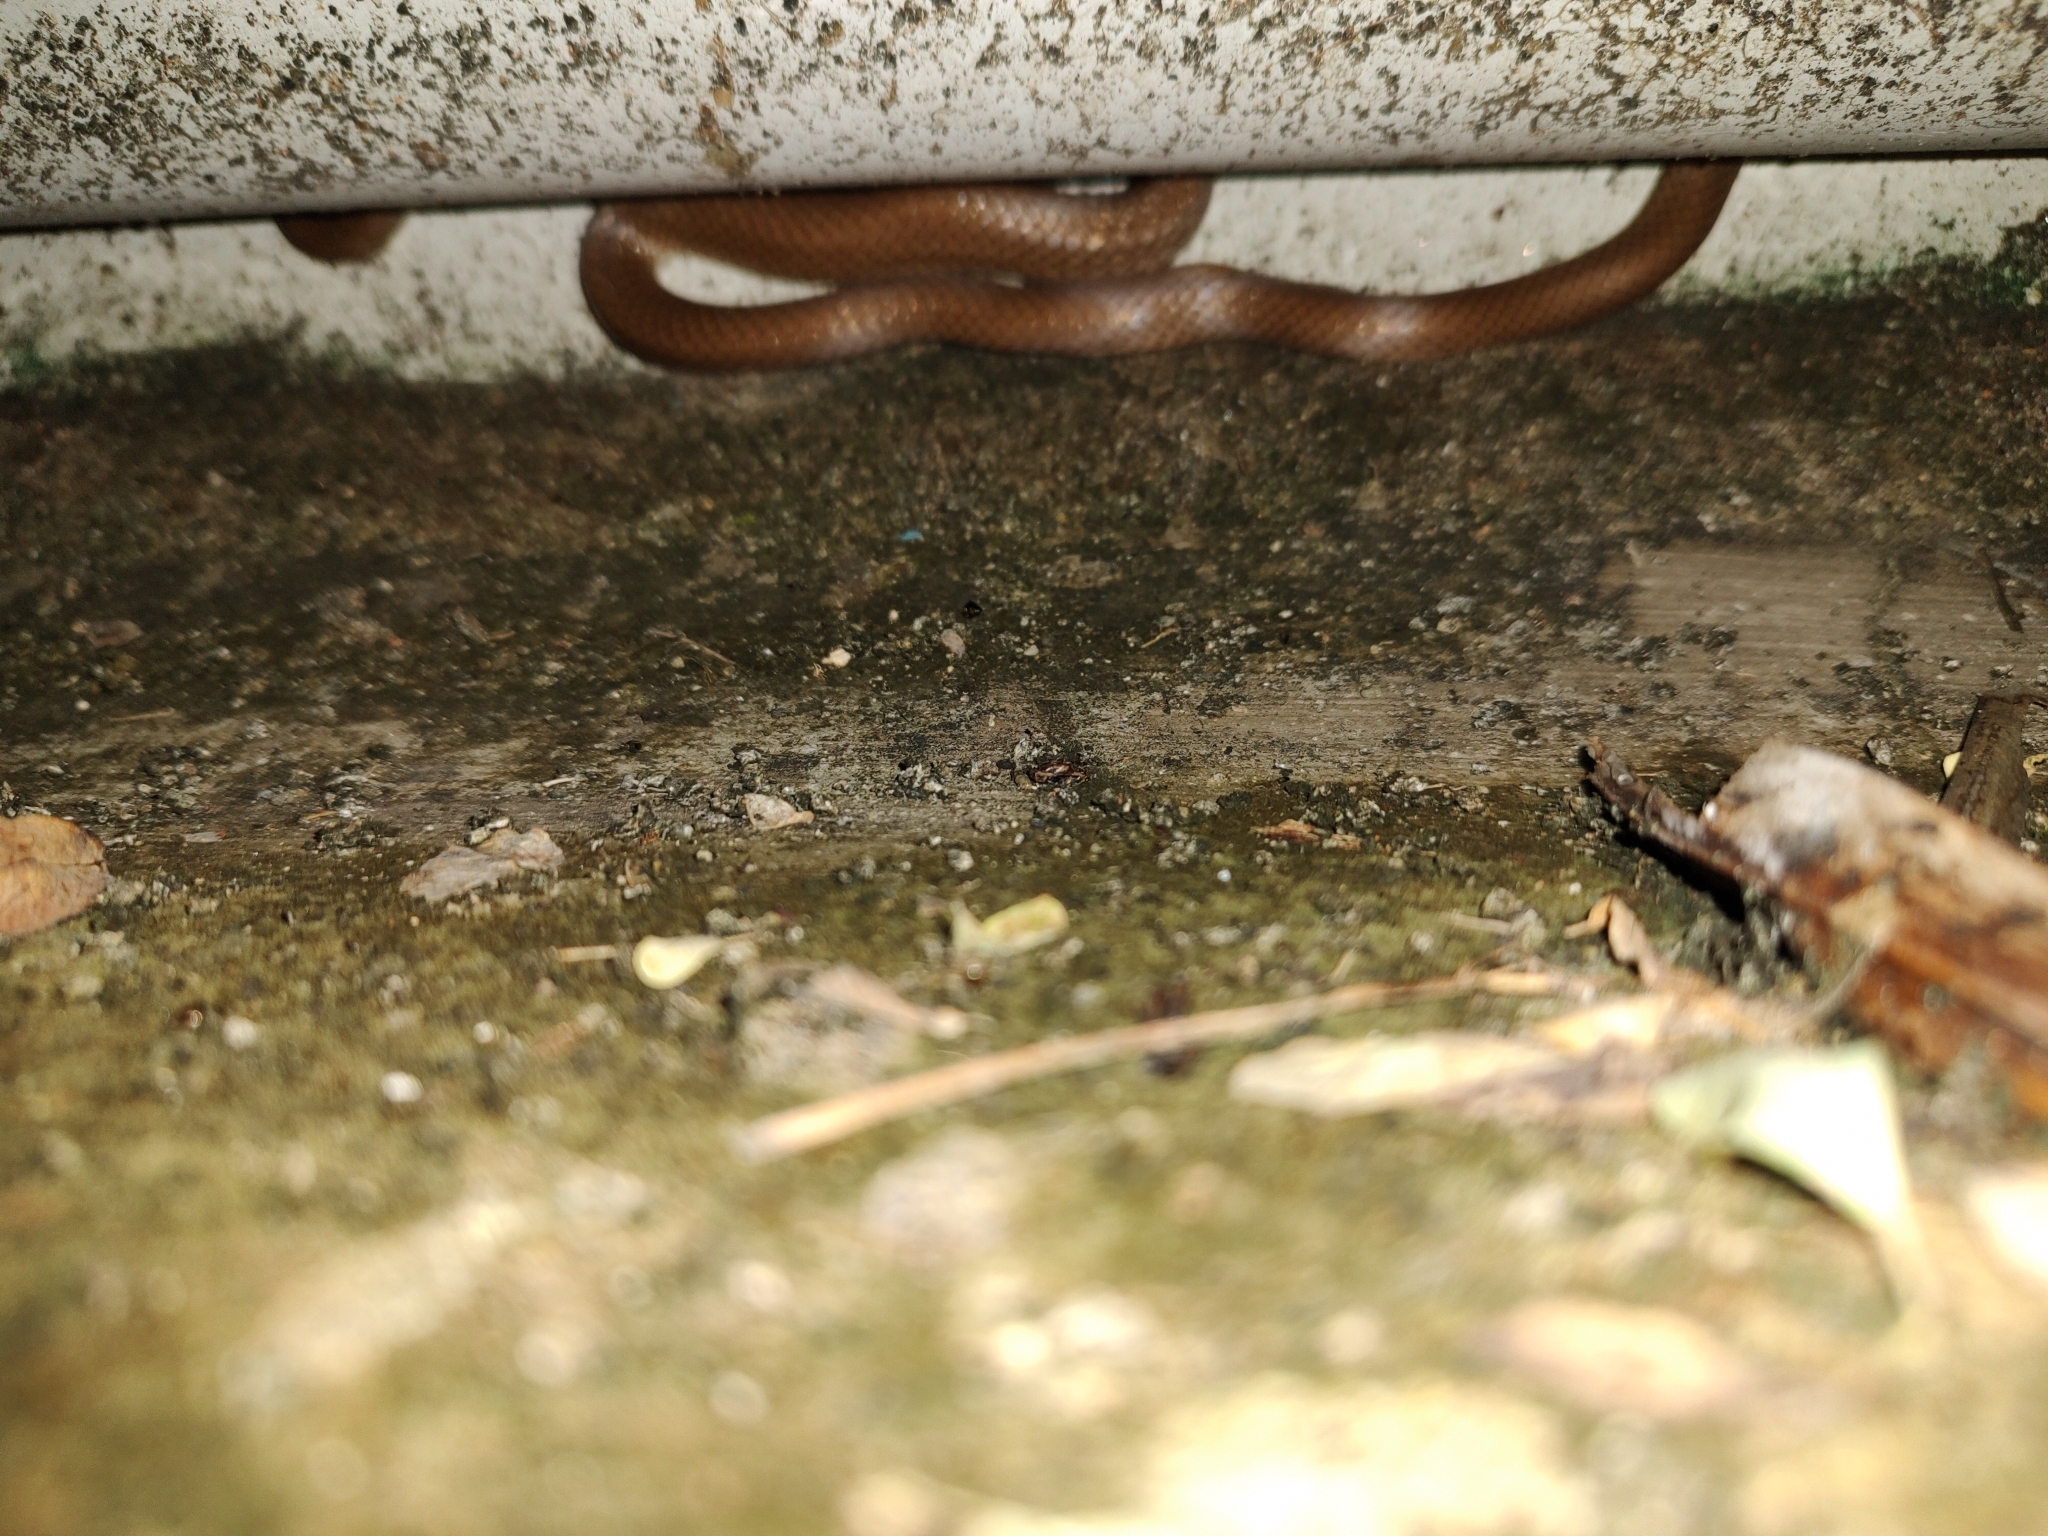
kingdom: Animalia
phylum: Chordata
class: Squamata
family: Colubridae
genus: Lycodon
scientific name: Lycodon fasciolatus
